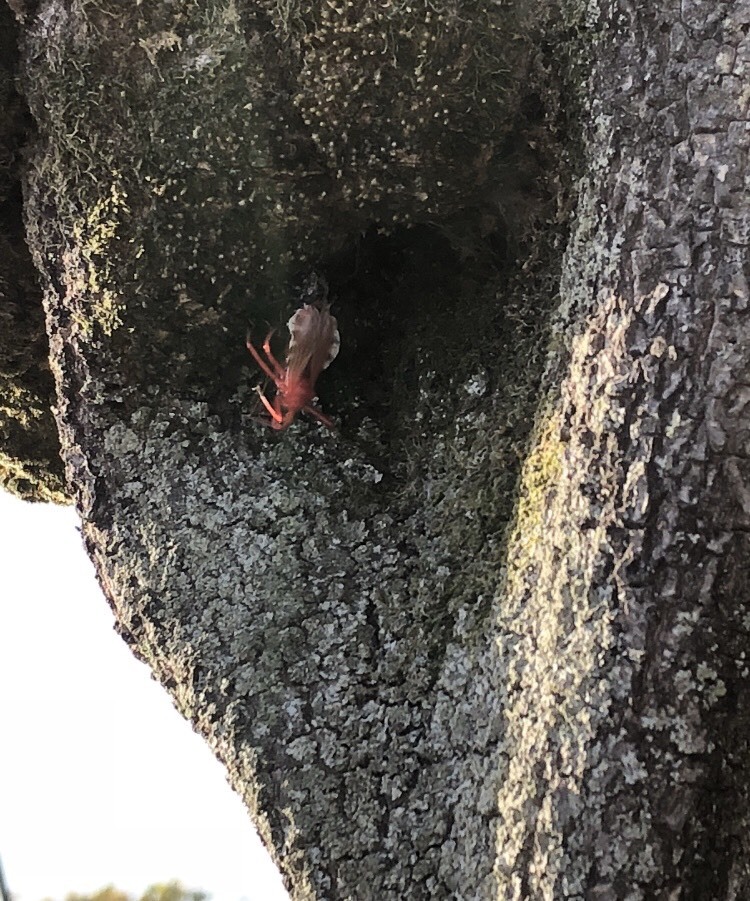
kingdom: Animalia
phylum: Arthropoda
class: Insecta
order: Hemiptera
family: Reduviidae
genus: Agriosphodrus
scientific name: Agriosphodrus dohrni
